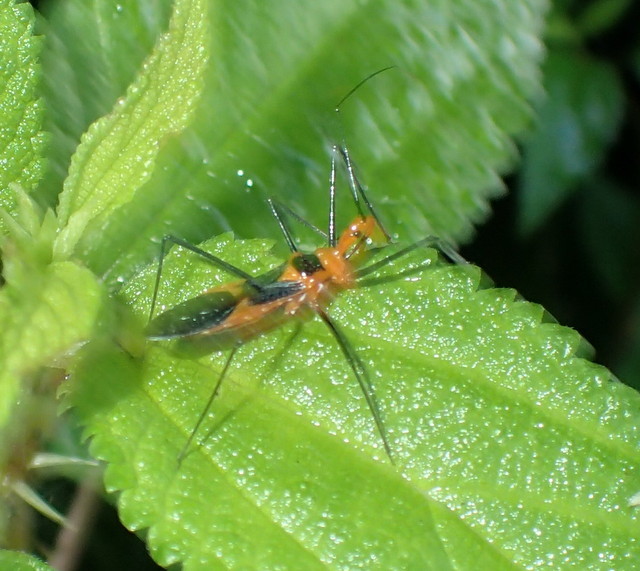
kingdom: Animalia
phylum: Arthropoda
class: Insecta
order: Hemiptera
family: Reduviidae
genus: Zelus
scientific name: Zelus longipes
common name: Milkweed assassin bug
